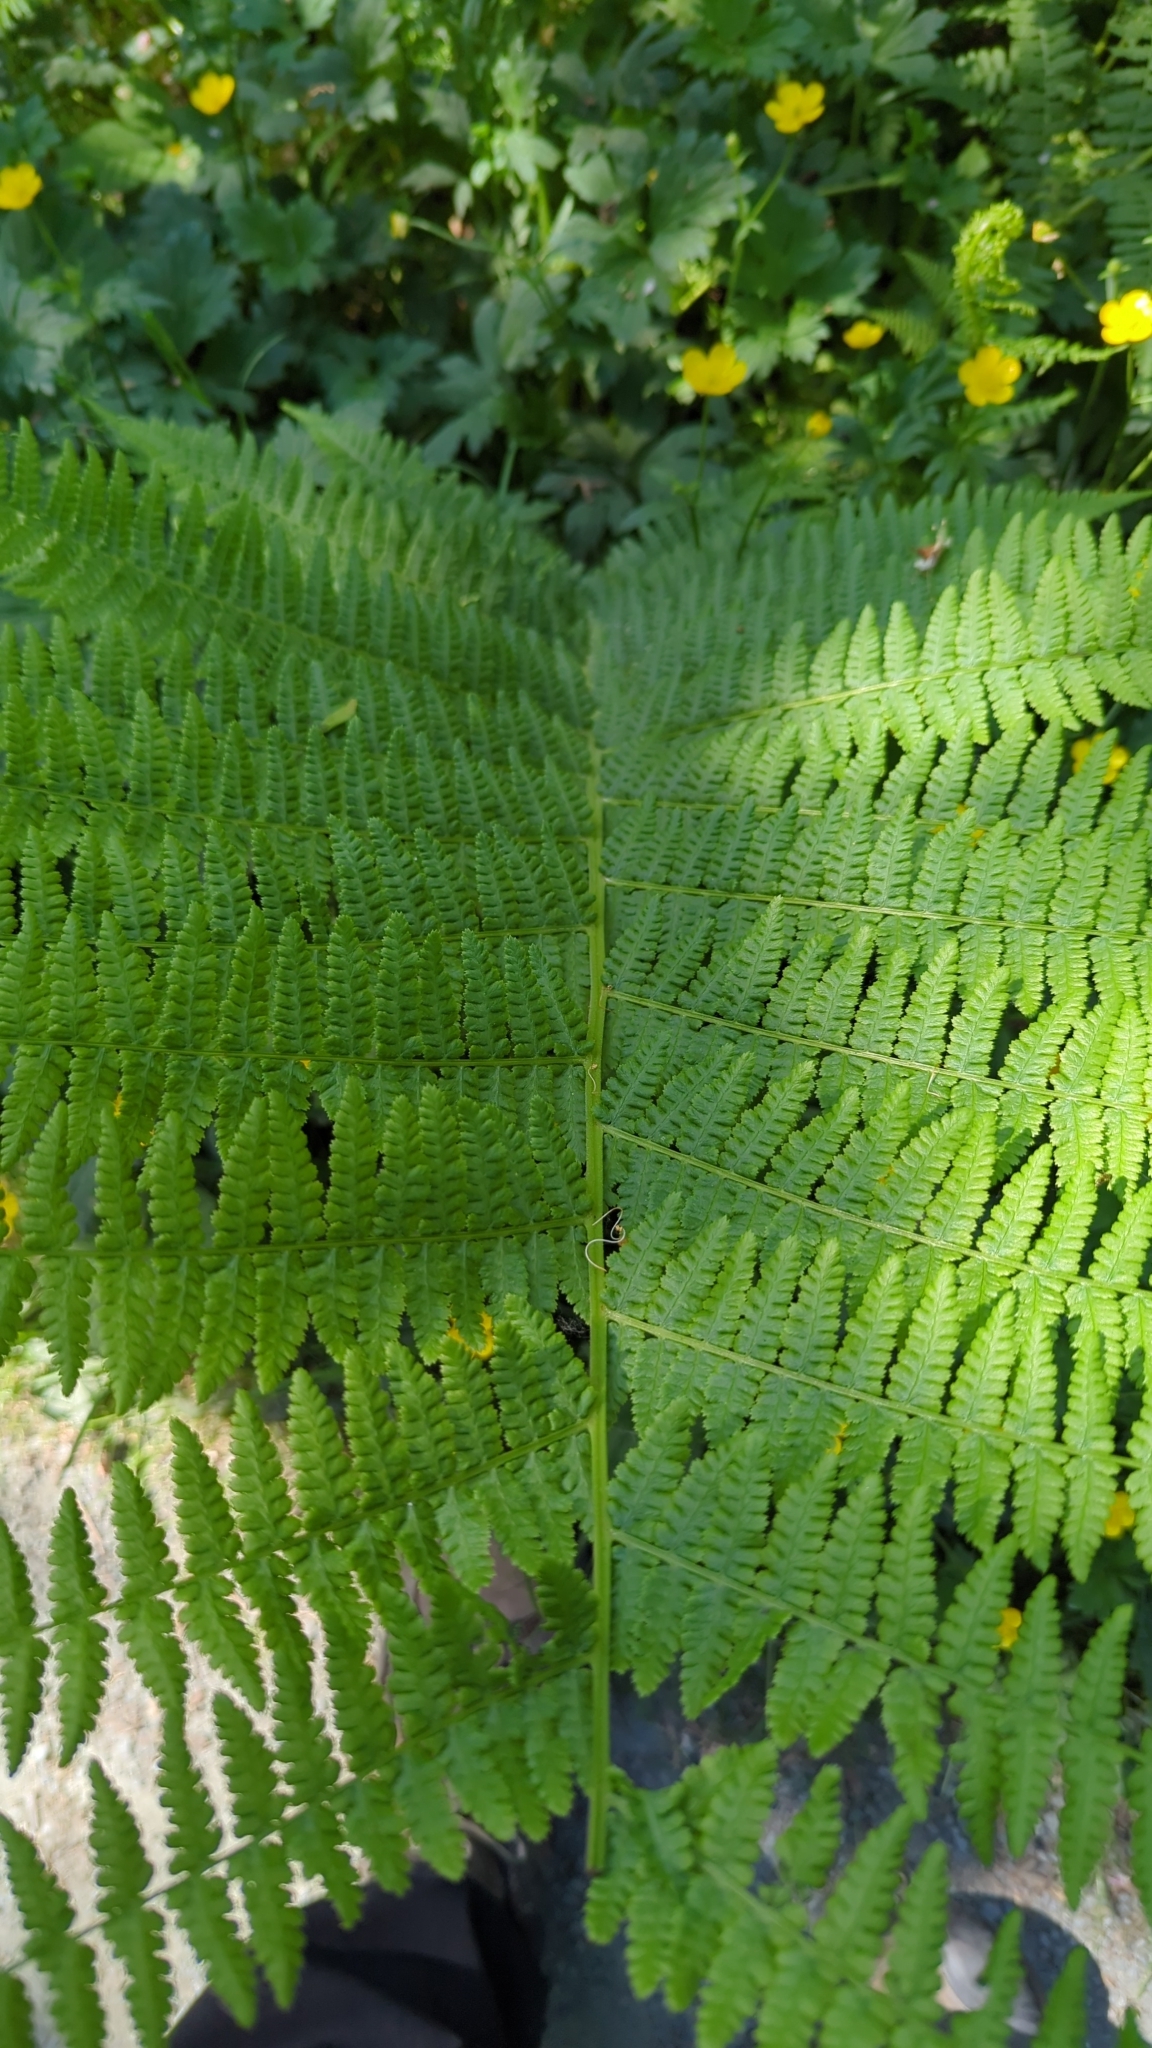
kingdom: Plantae
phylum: Tracheophyta
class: Polypodiopsida
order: Polypodiales
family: Athyriaceae
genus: Athyrium
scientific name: Athyrium filix-femina
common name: Lady fern
